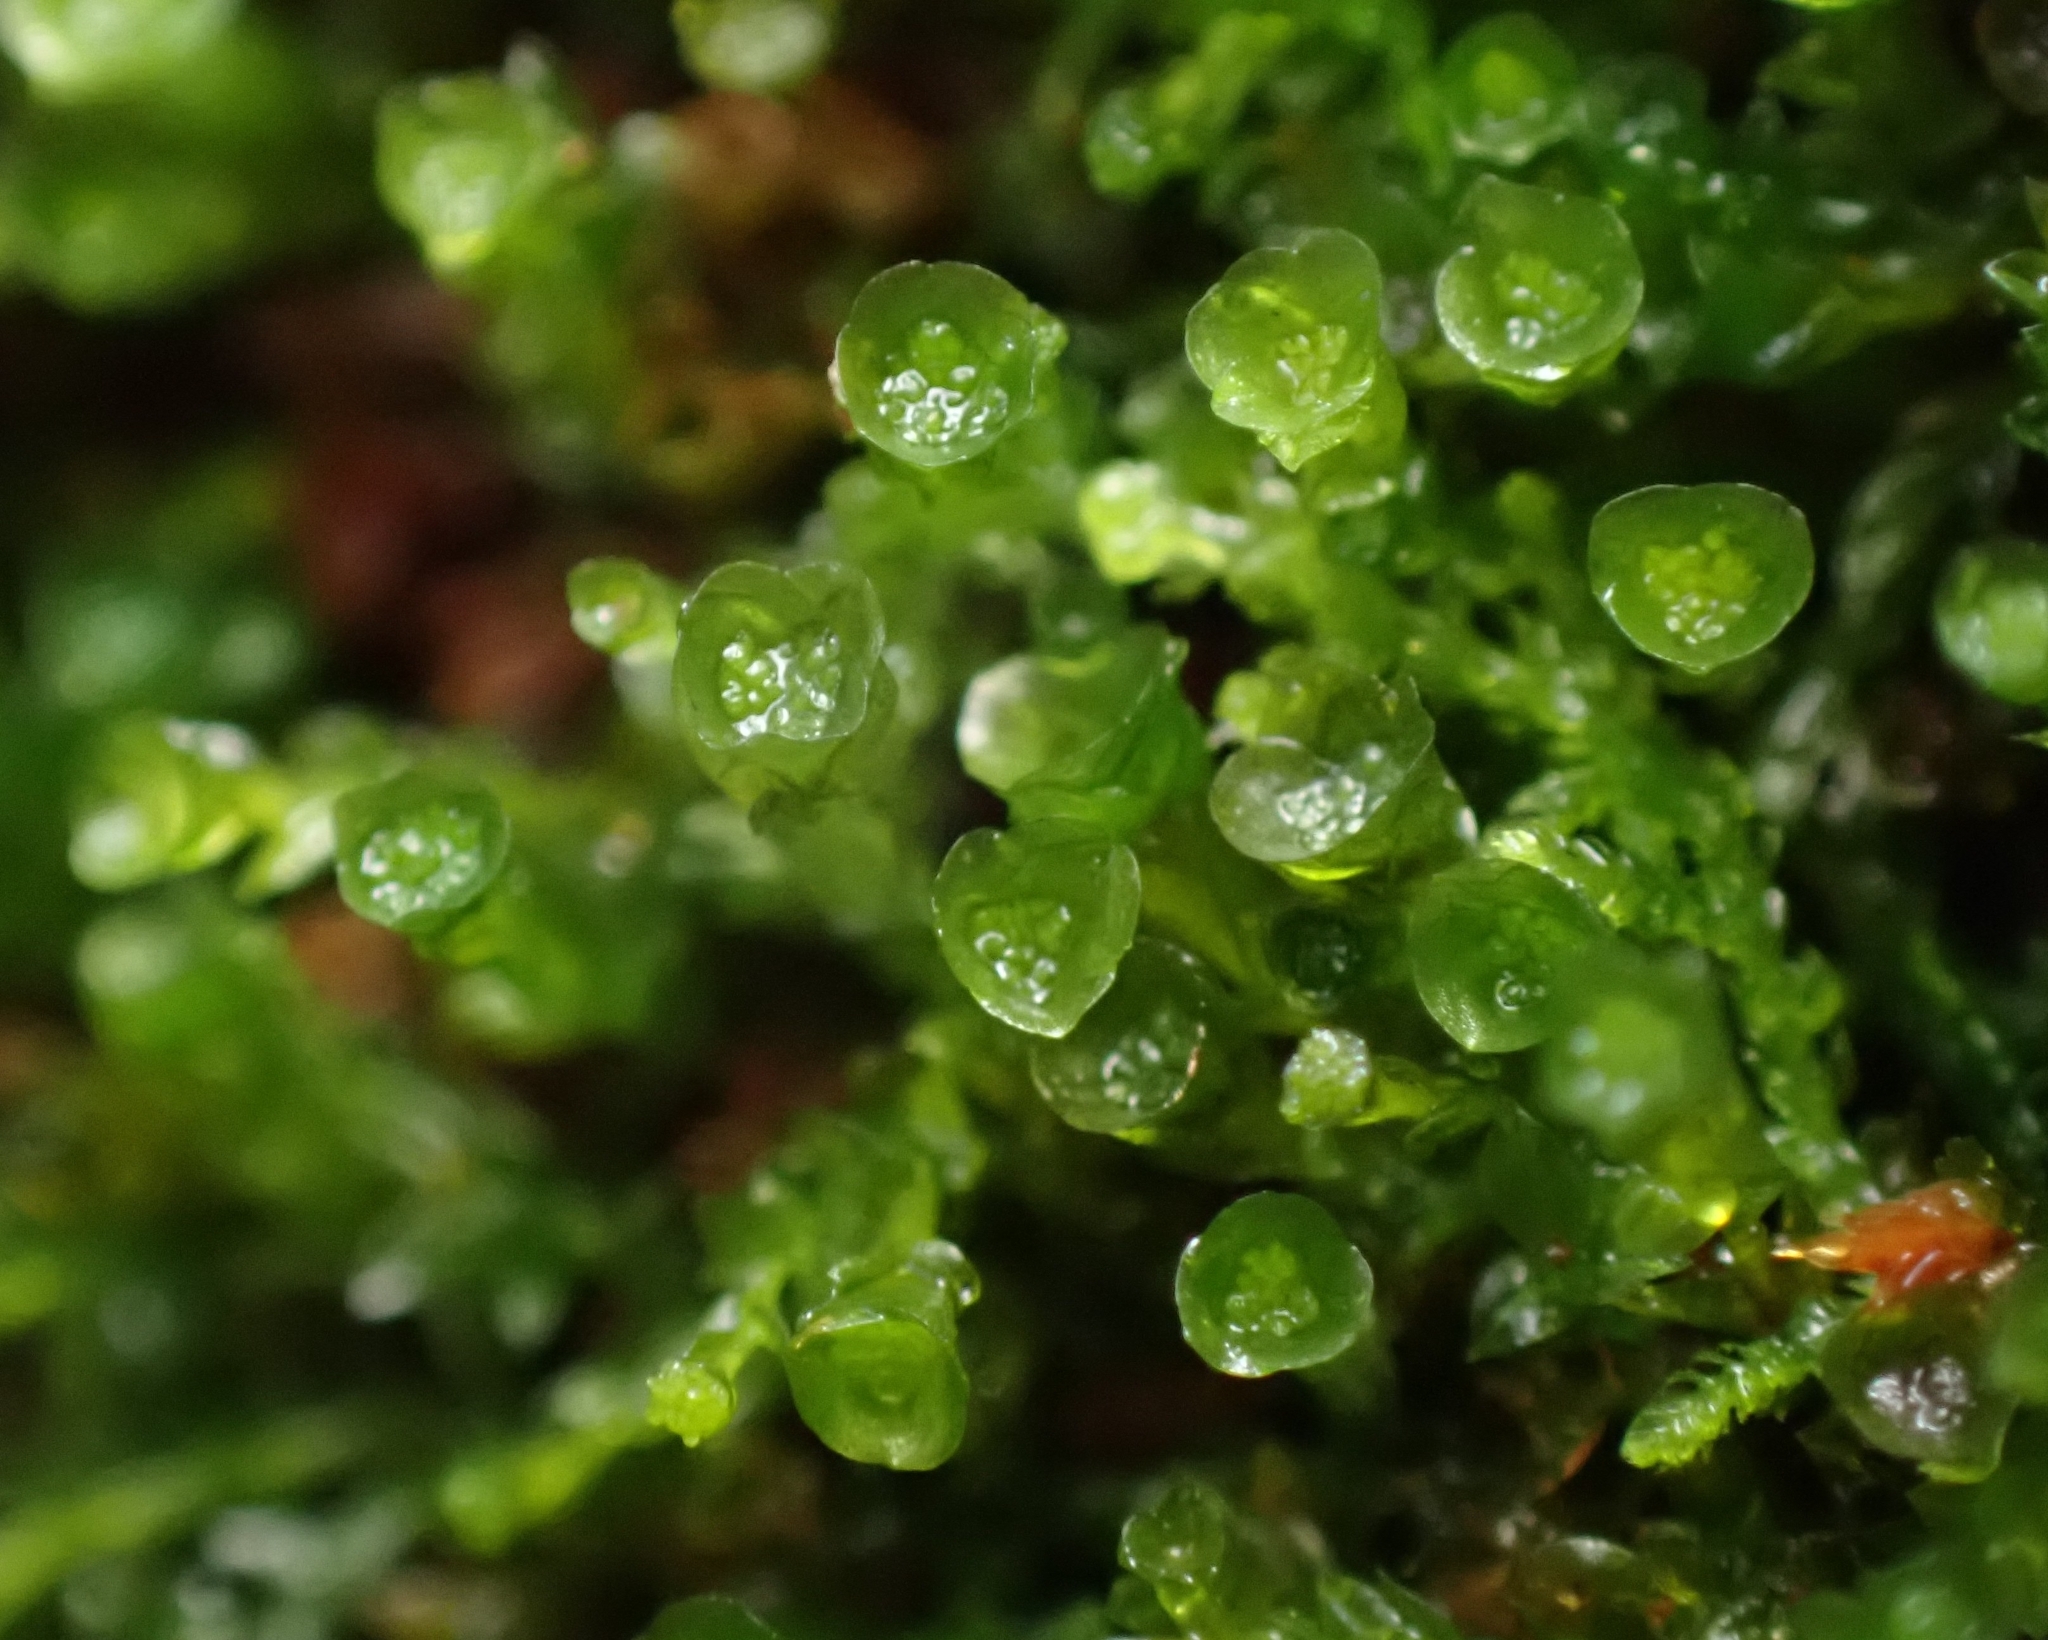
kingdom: Plantae
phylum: Bryophyta
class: Polytrichopsida
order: Tetraphidales
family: Tetraphidaceae
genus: Tetraphis
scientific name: Tetraphis pellucida
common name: Common four-toothed moss
